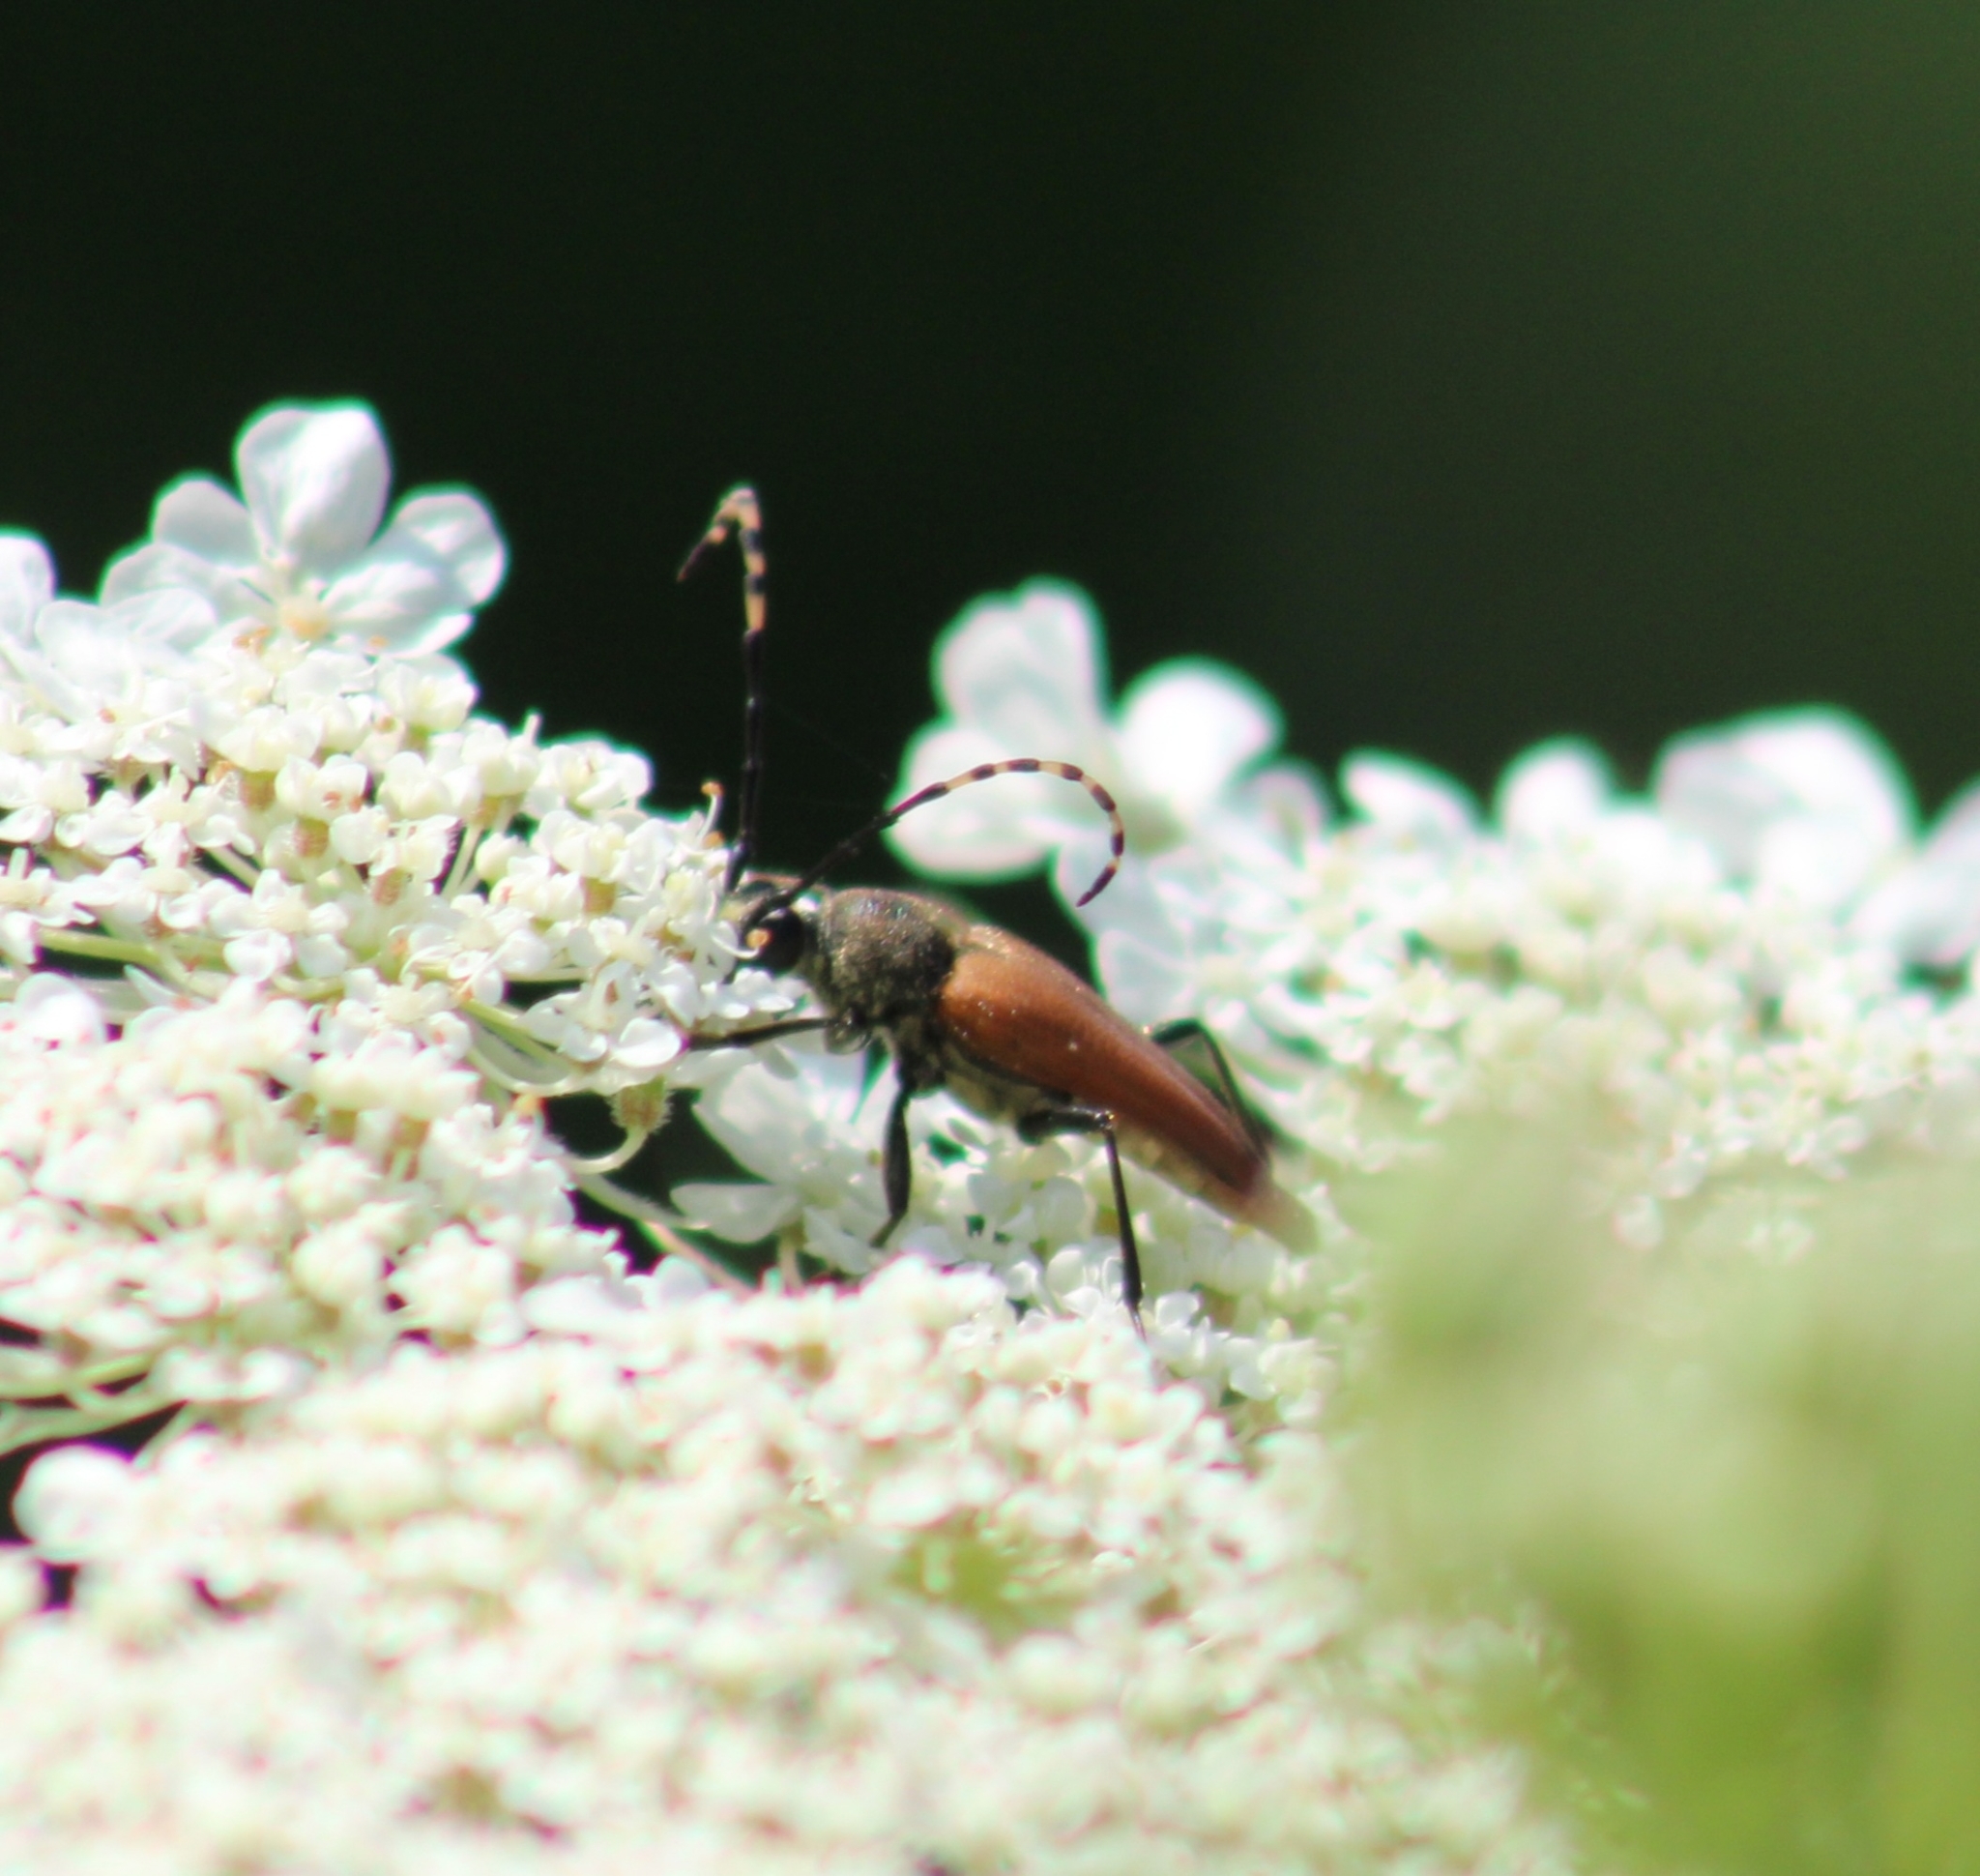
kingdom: Animalia
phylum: Arthropoda
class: Insecta
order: Coleoptera
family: Cerambycidae
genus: Brachyleptura
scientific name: Brachyleptura rubrica
